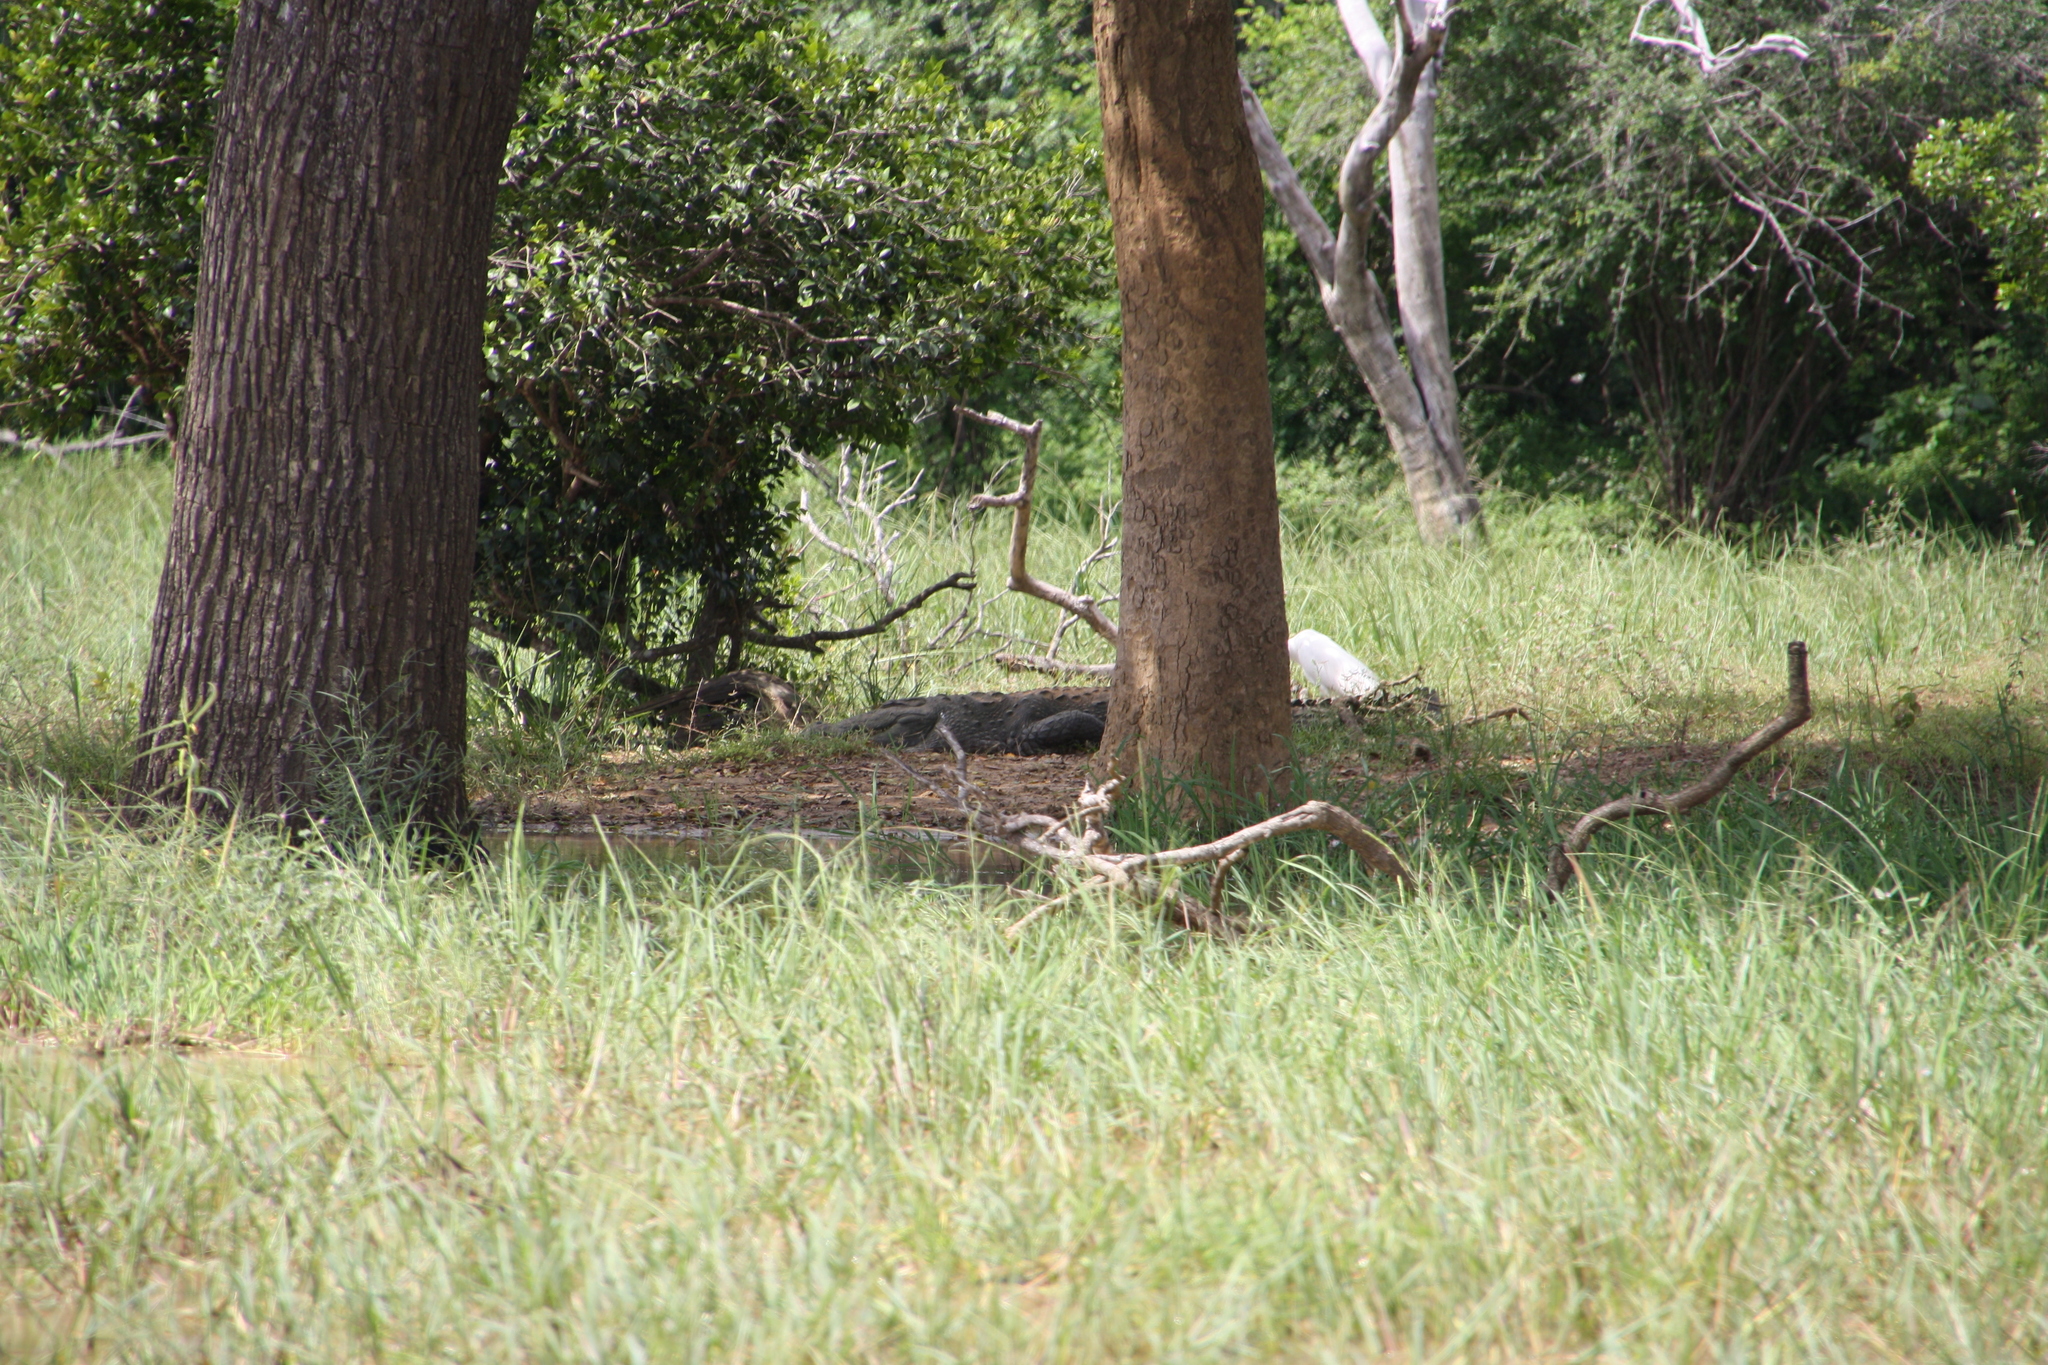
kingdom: Animalia
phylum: Chordata
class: Crocodylia
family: Crocodylidae
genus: Crocodylus
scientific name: Crocodylus palustris
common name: Mugger crocodile
